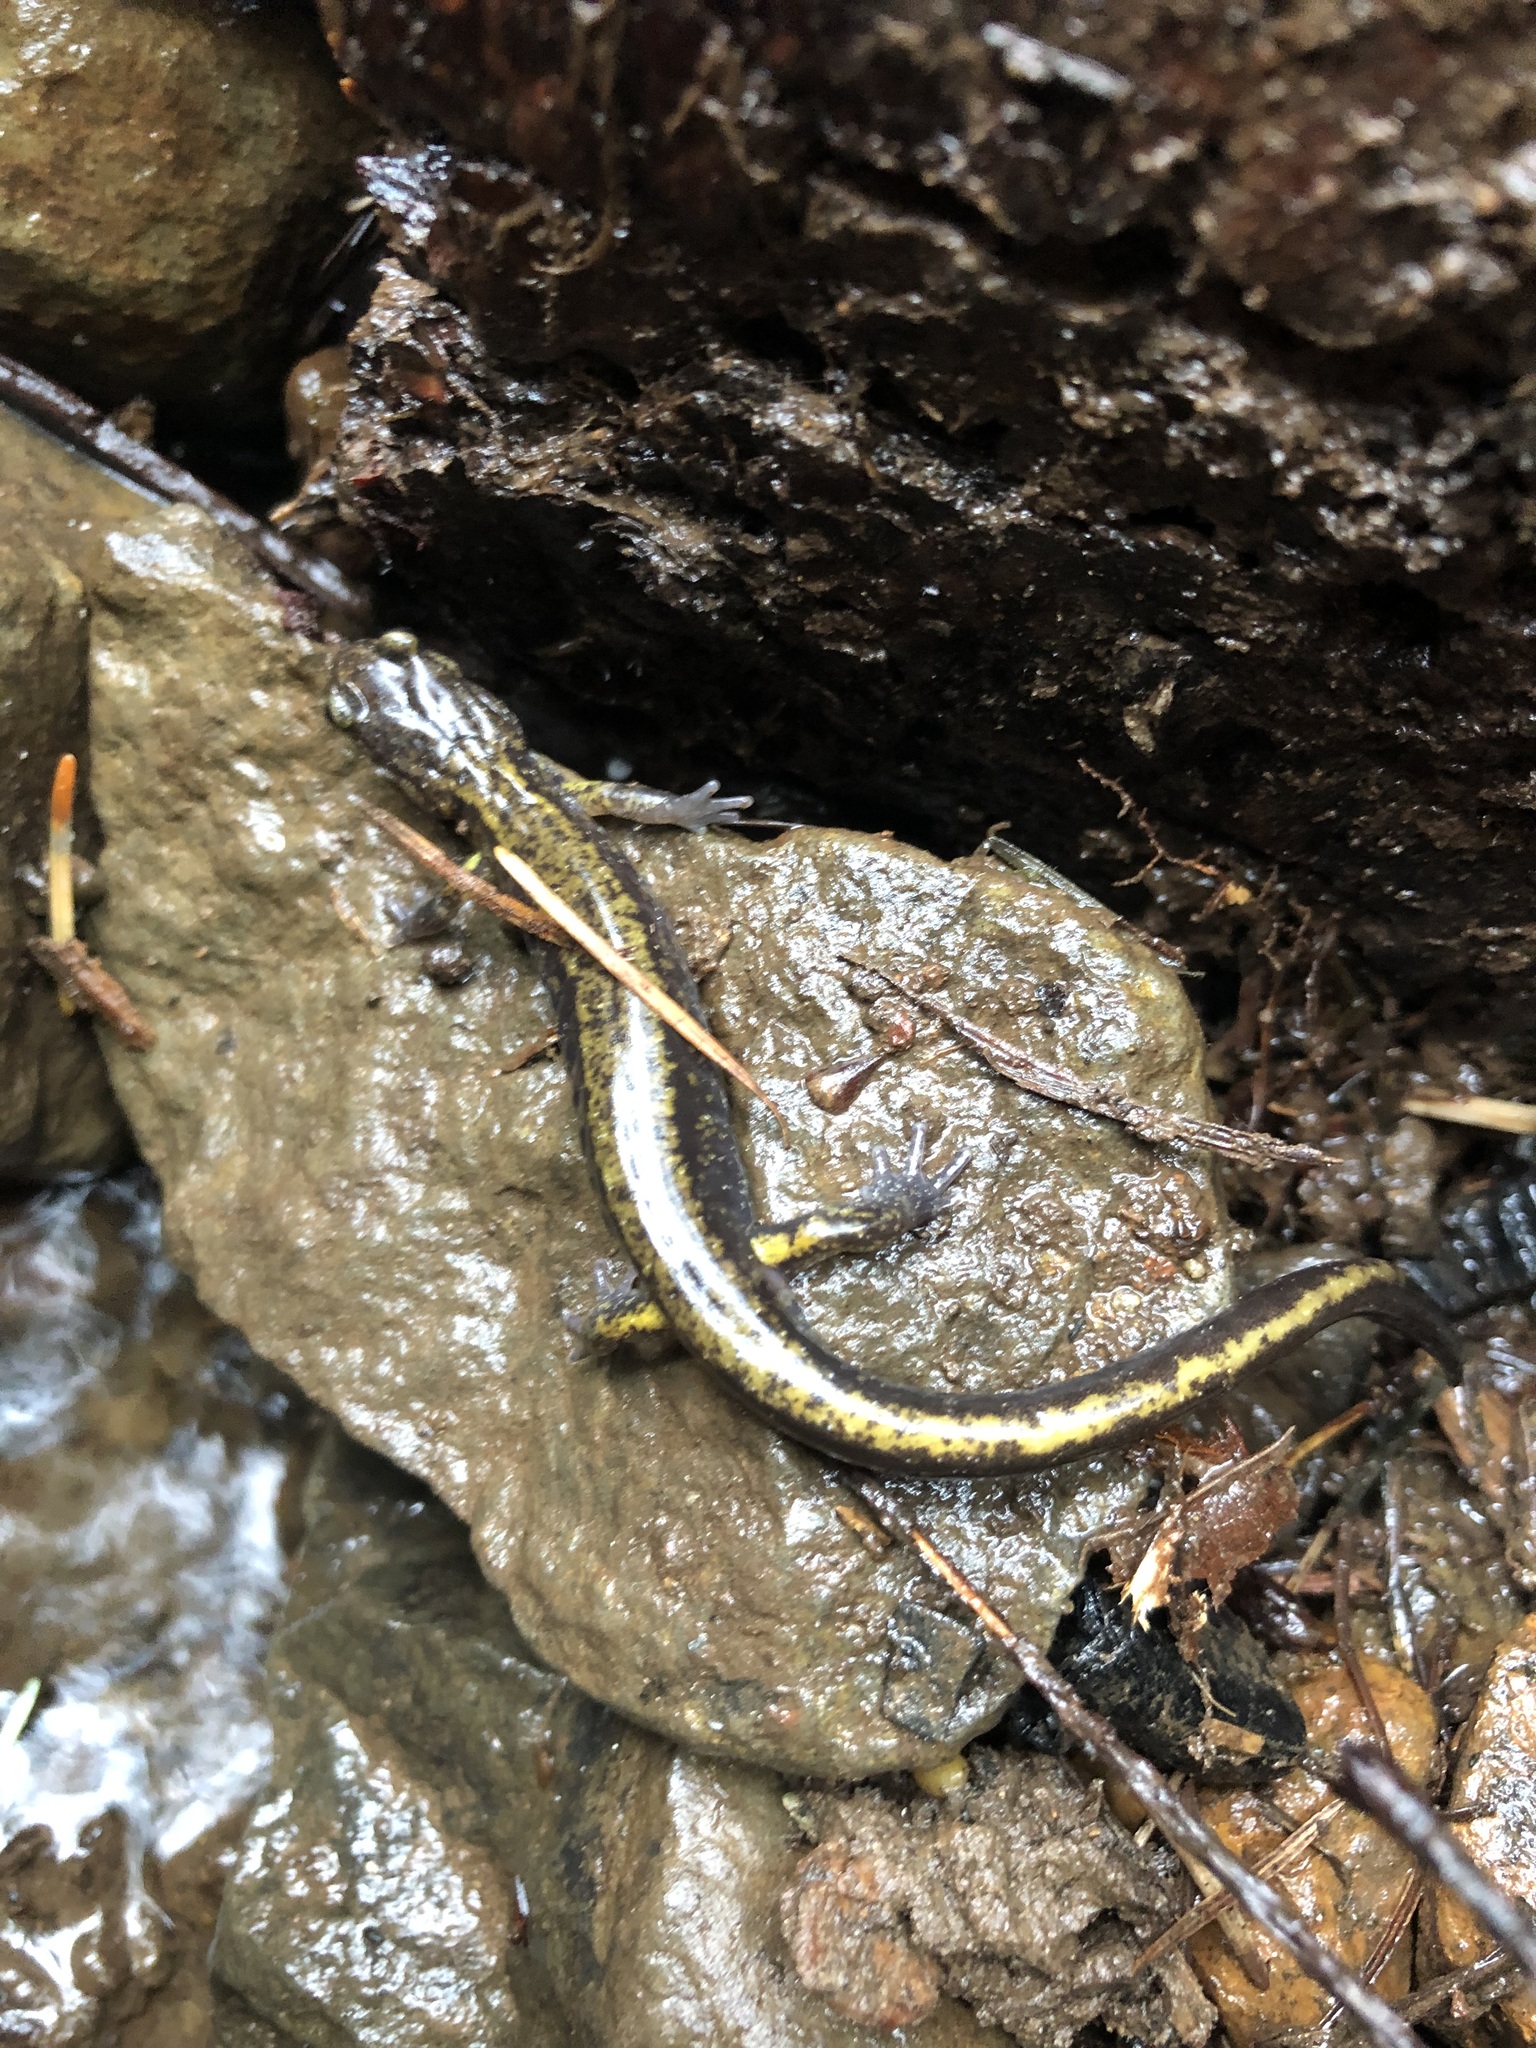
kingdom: Animalia
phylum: Chordata
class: Amphibia
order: Caudata
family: Plethodontidae
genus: Plethodon
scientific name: Plethodon dunni
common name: Dunn's salamander
